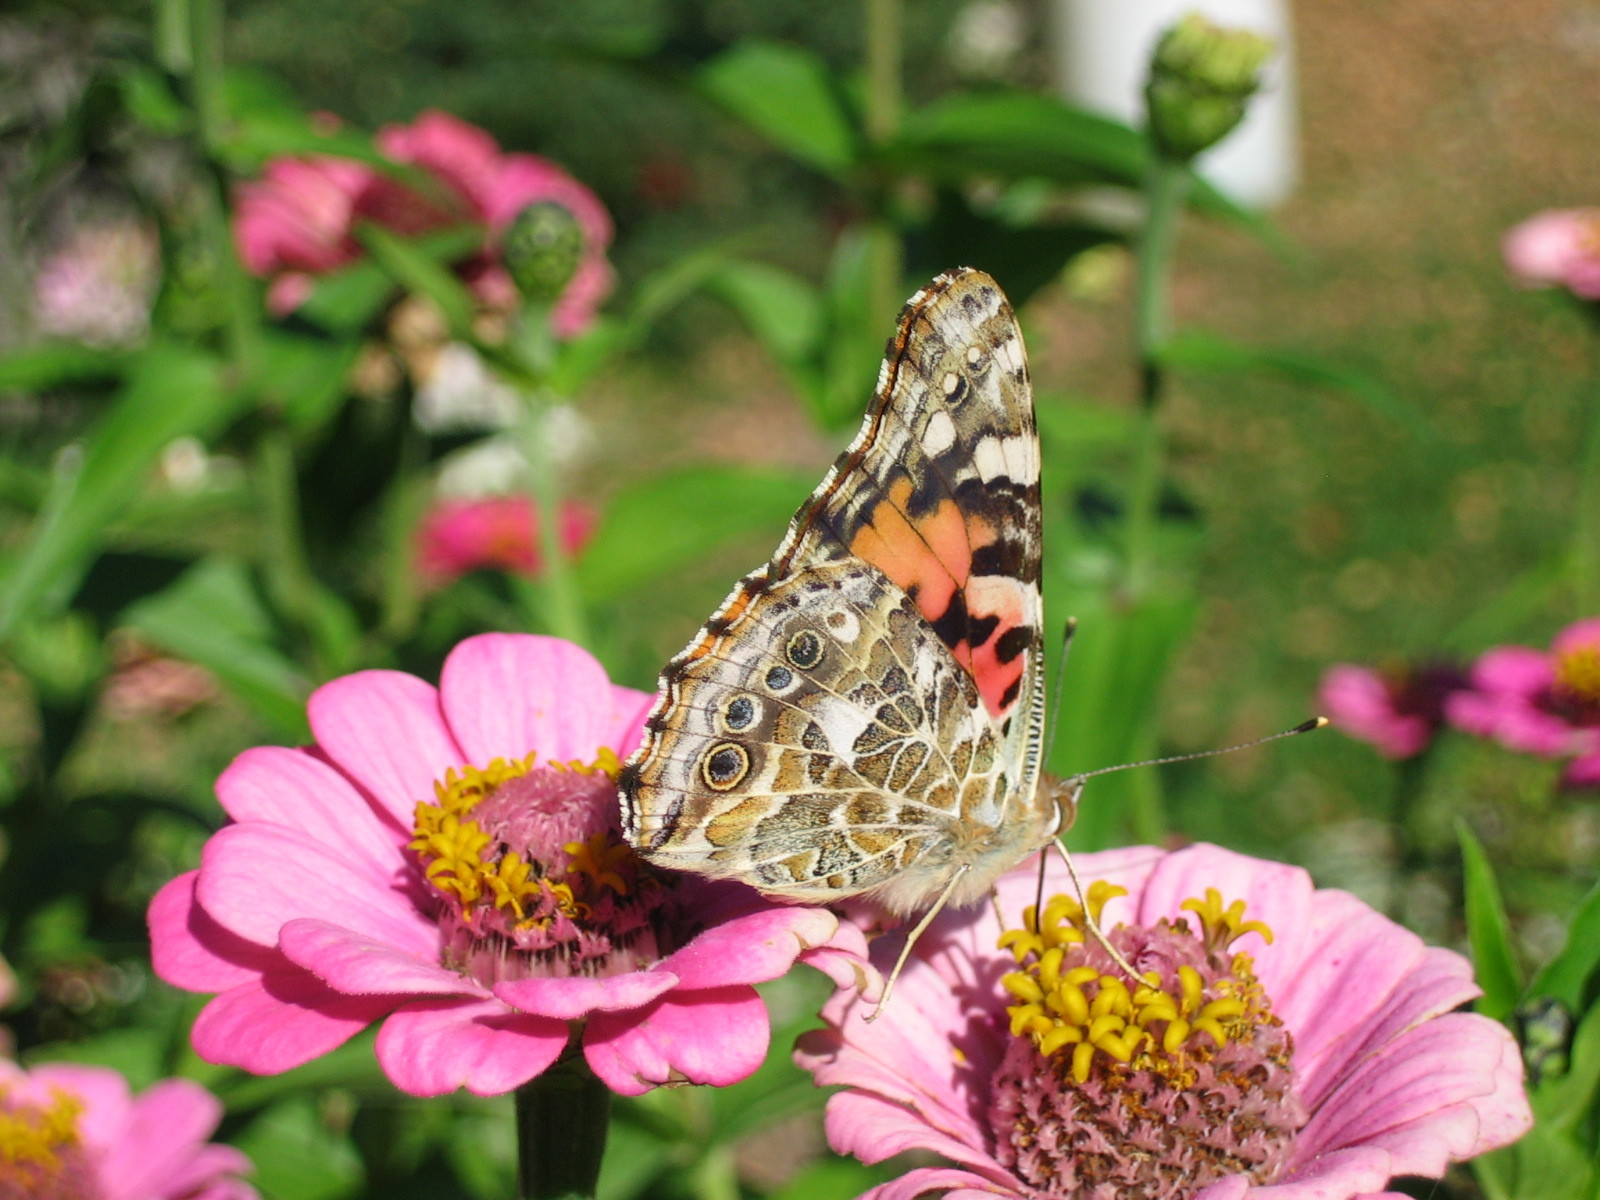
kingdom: Animalia
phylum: Arthropoda
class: Insecta
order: Lepidoptera
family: Nymphalidae
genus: Vanessa
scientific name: Vanessa cardui
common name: Painted lady
